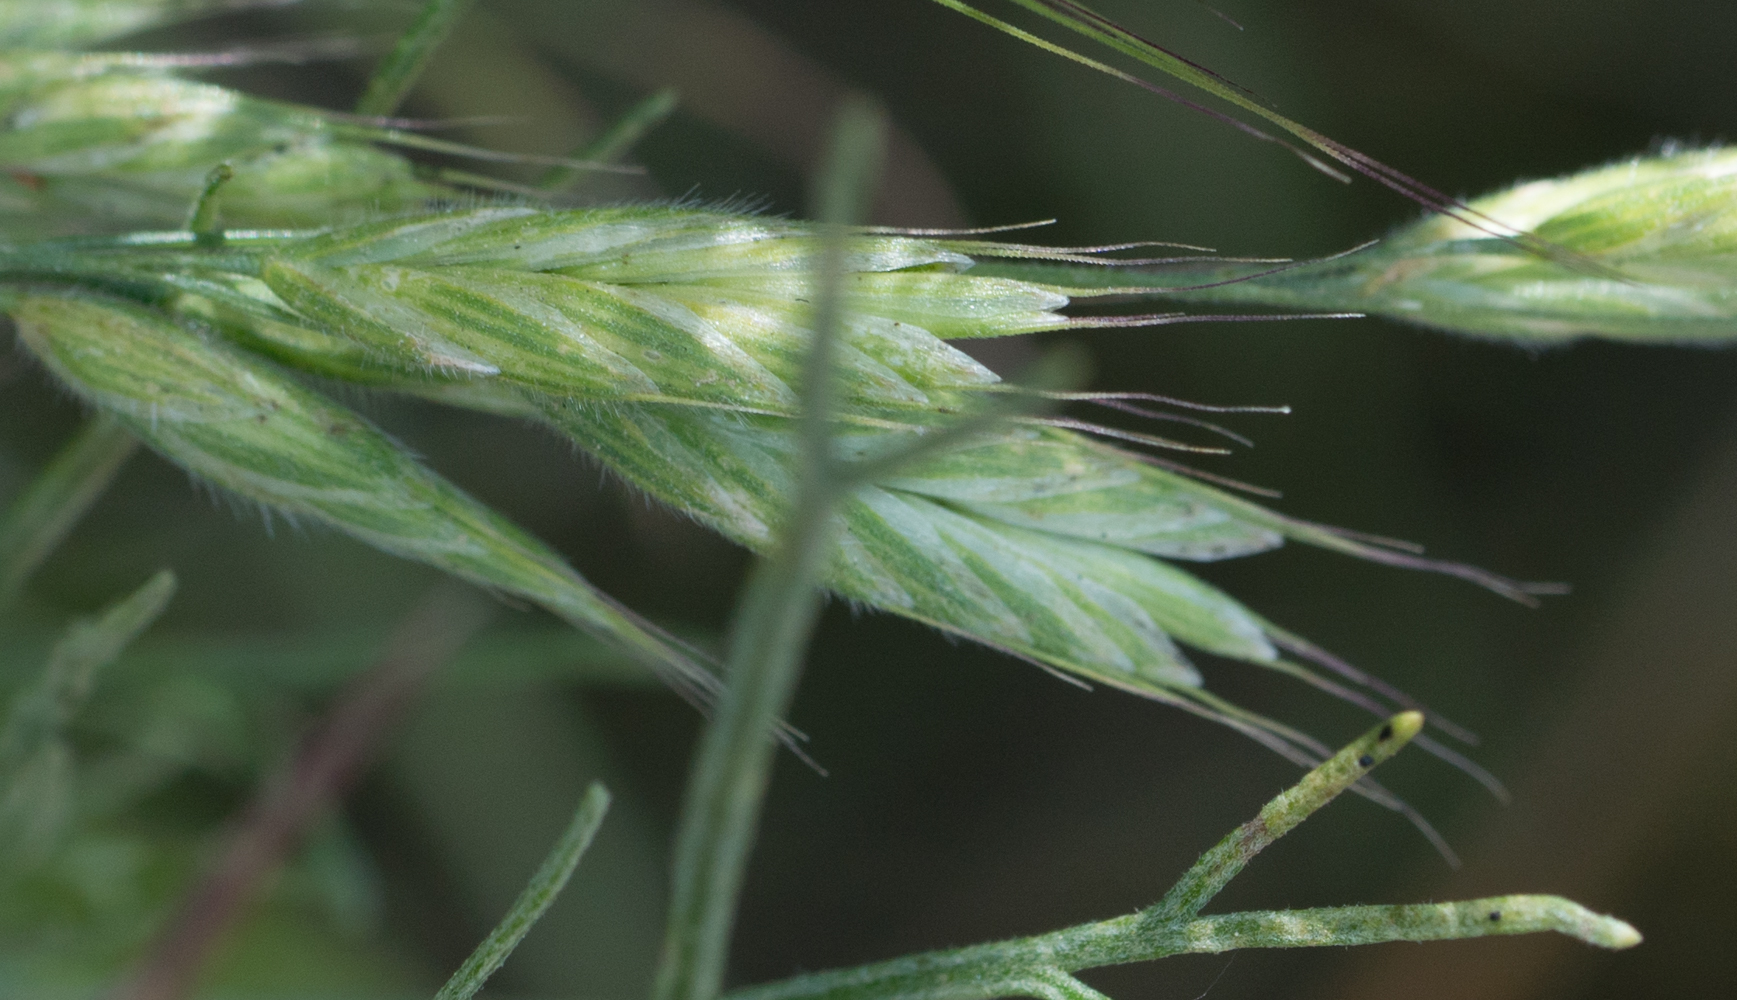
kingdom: Plantae
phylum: Tracheophyta
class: Liliopsida
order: Poales
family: Poaceae
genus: Bromus
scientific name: Bromus hordeaceus
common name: Soft brome
